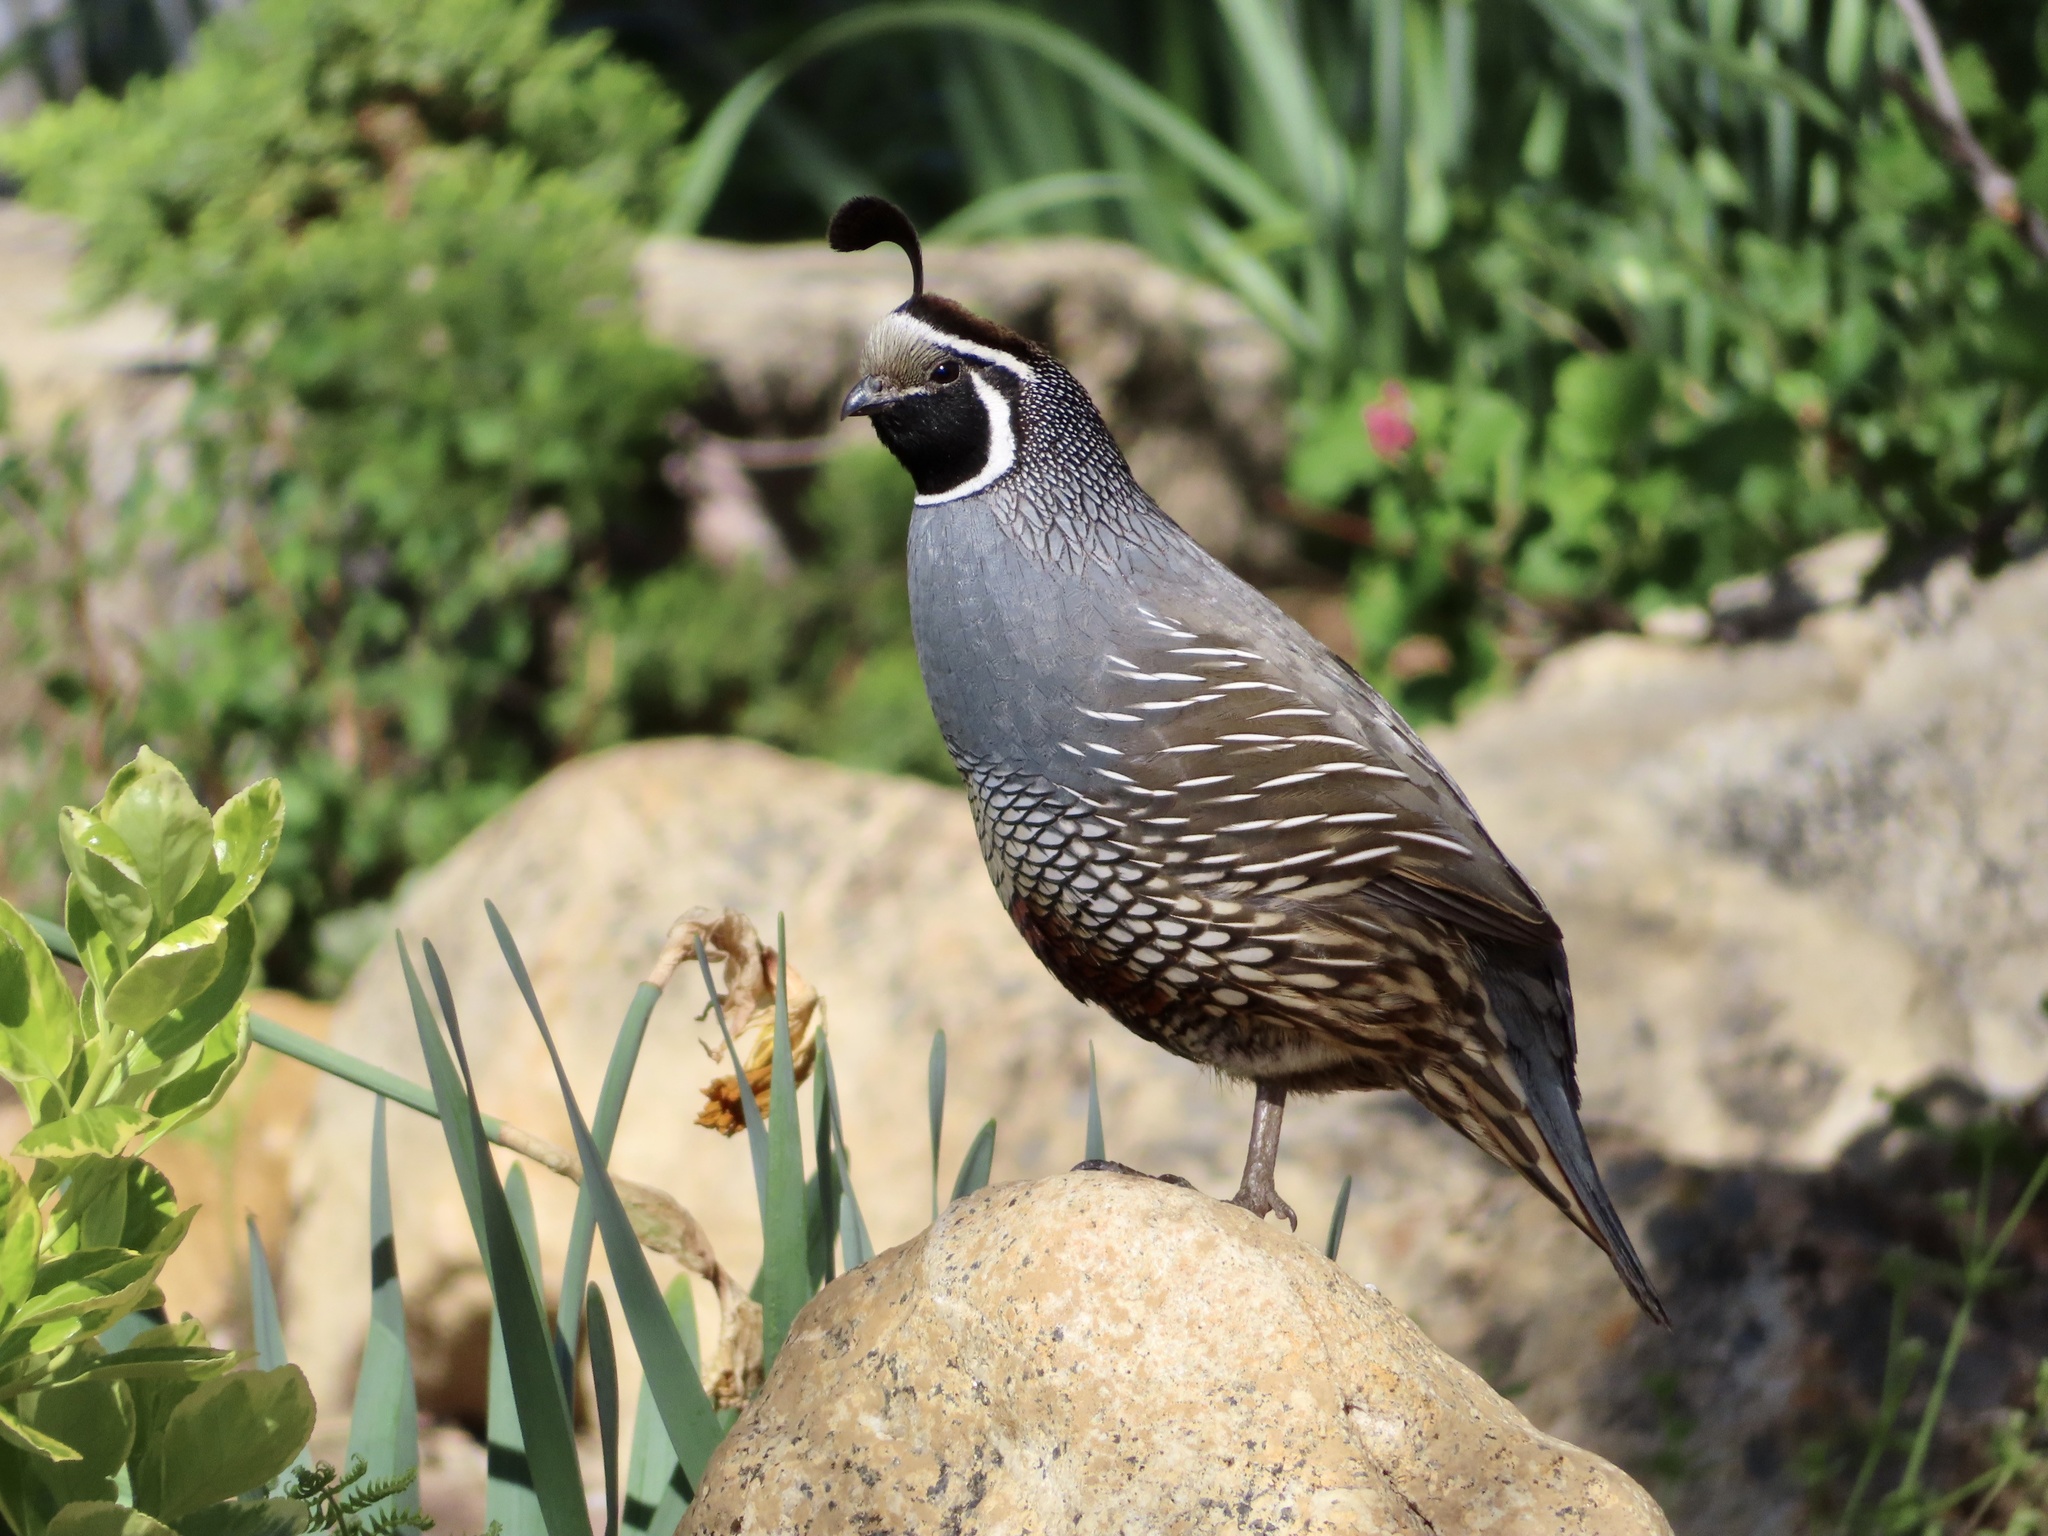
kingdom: Animalia
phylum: Chordata
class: Aves
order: Galliformes
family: Odontophoridae
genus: Callipepla
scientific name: Callipepla californica
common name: California quail
